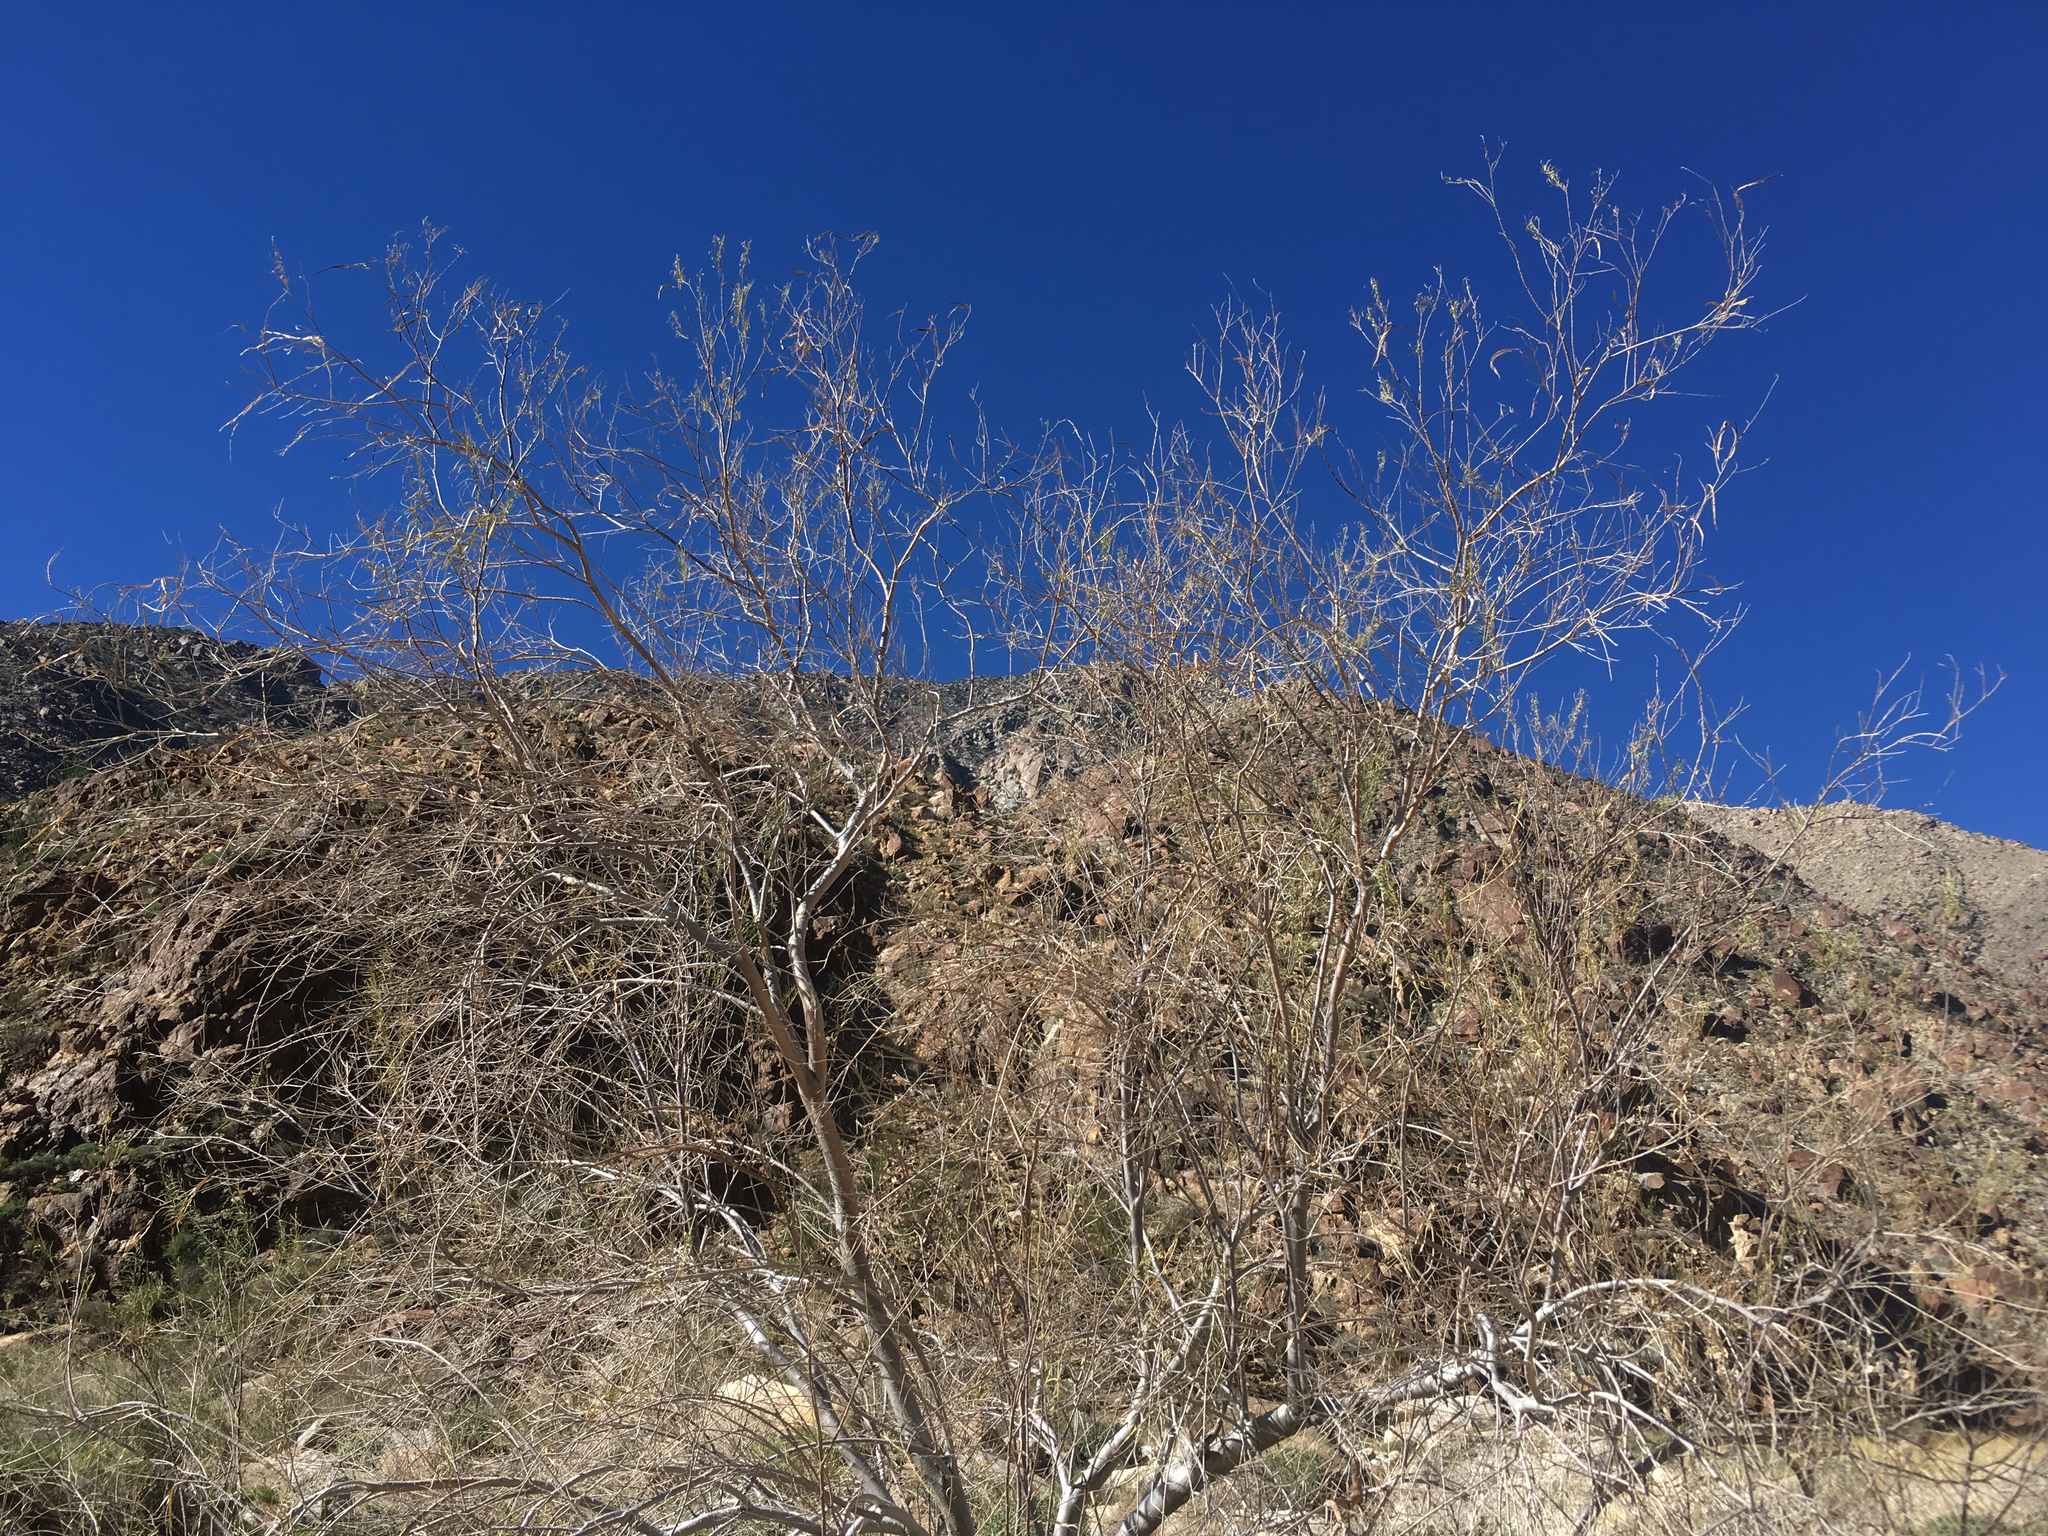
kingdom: Plantae
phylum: Tracheophyta
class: Magnoliopsida
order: Lamiales
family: Bignoniaceae
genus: Chilopsis
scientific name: Chilopsis linearis
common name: Desert-willow
